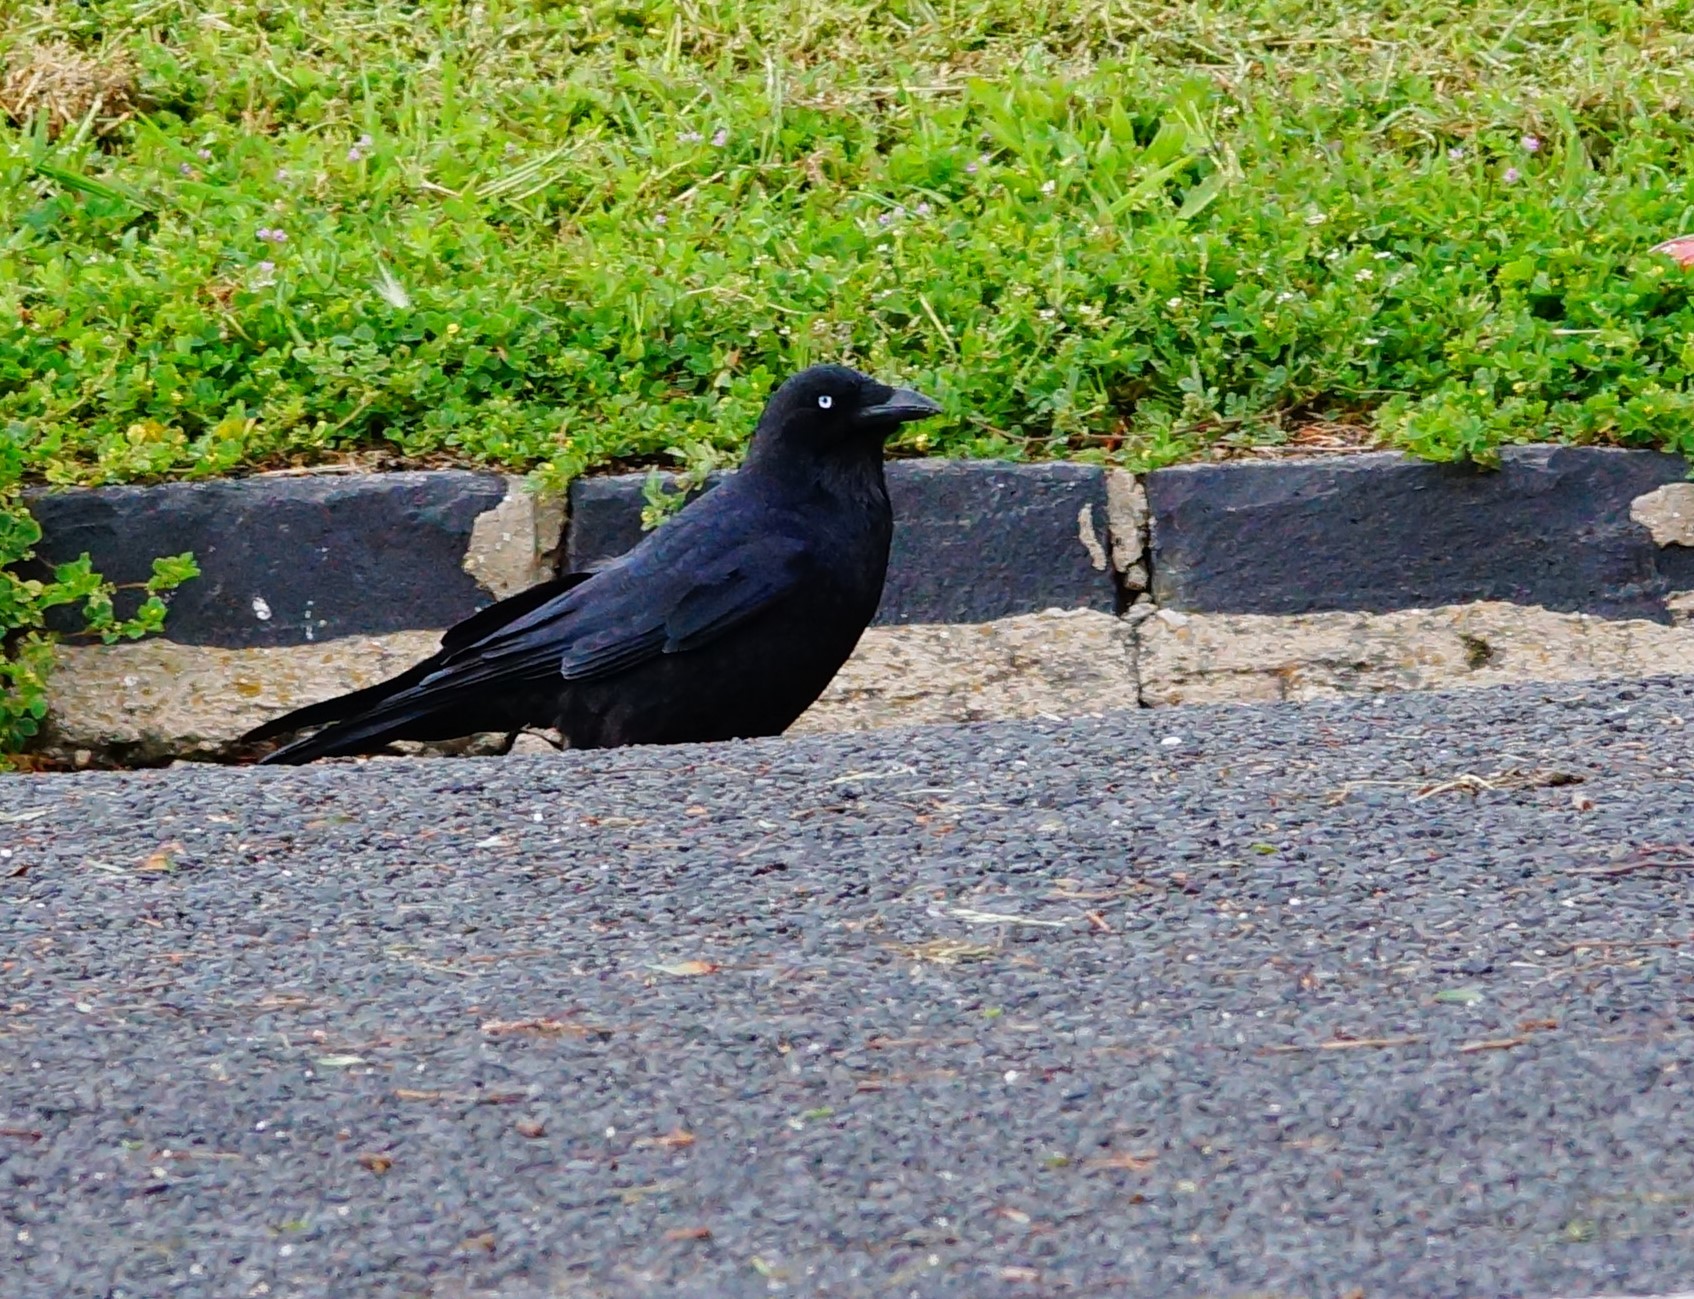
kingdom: Animalia
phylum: Chordata
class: Aves
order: Passeriformes
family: Corvidae
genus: Corvus
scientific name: Corvus mellori
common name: Little raven
